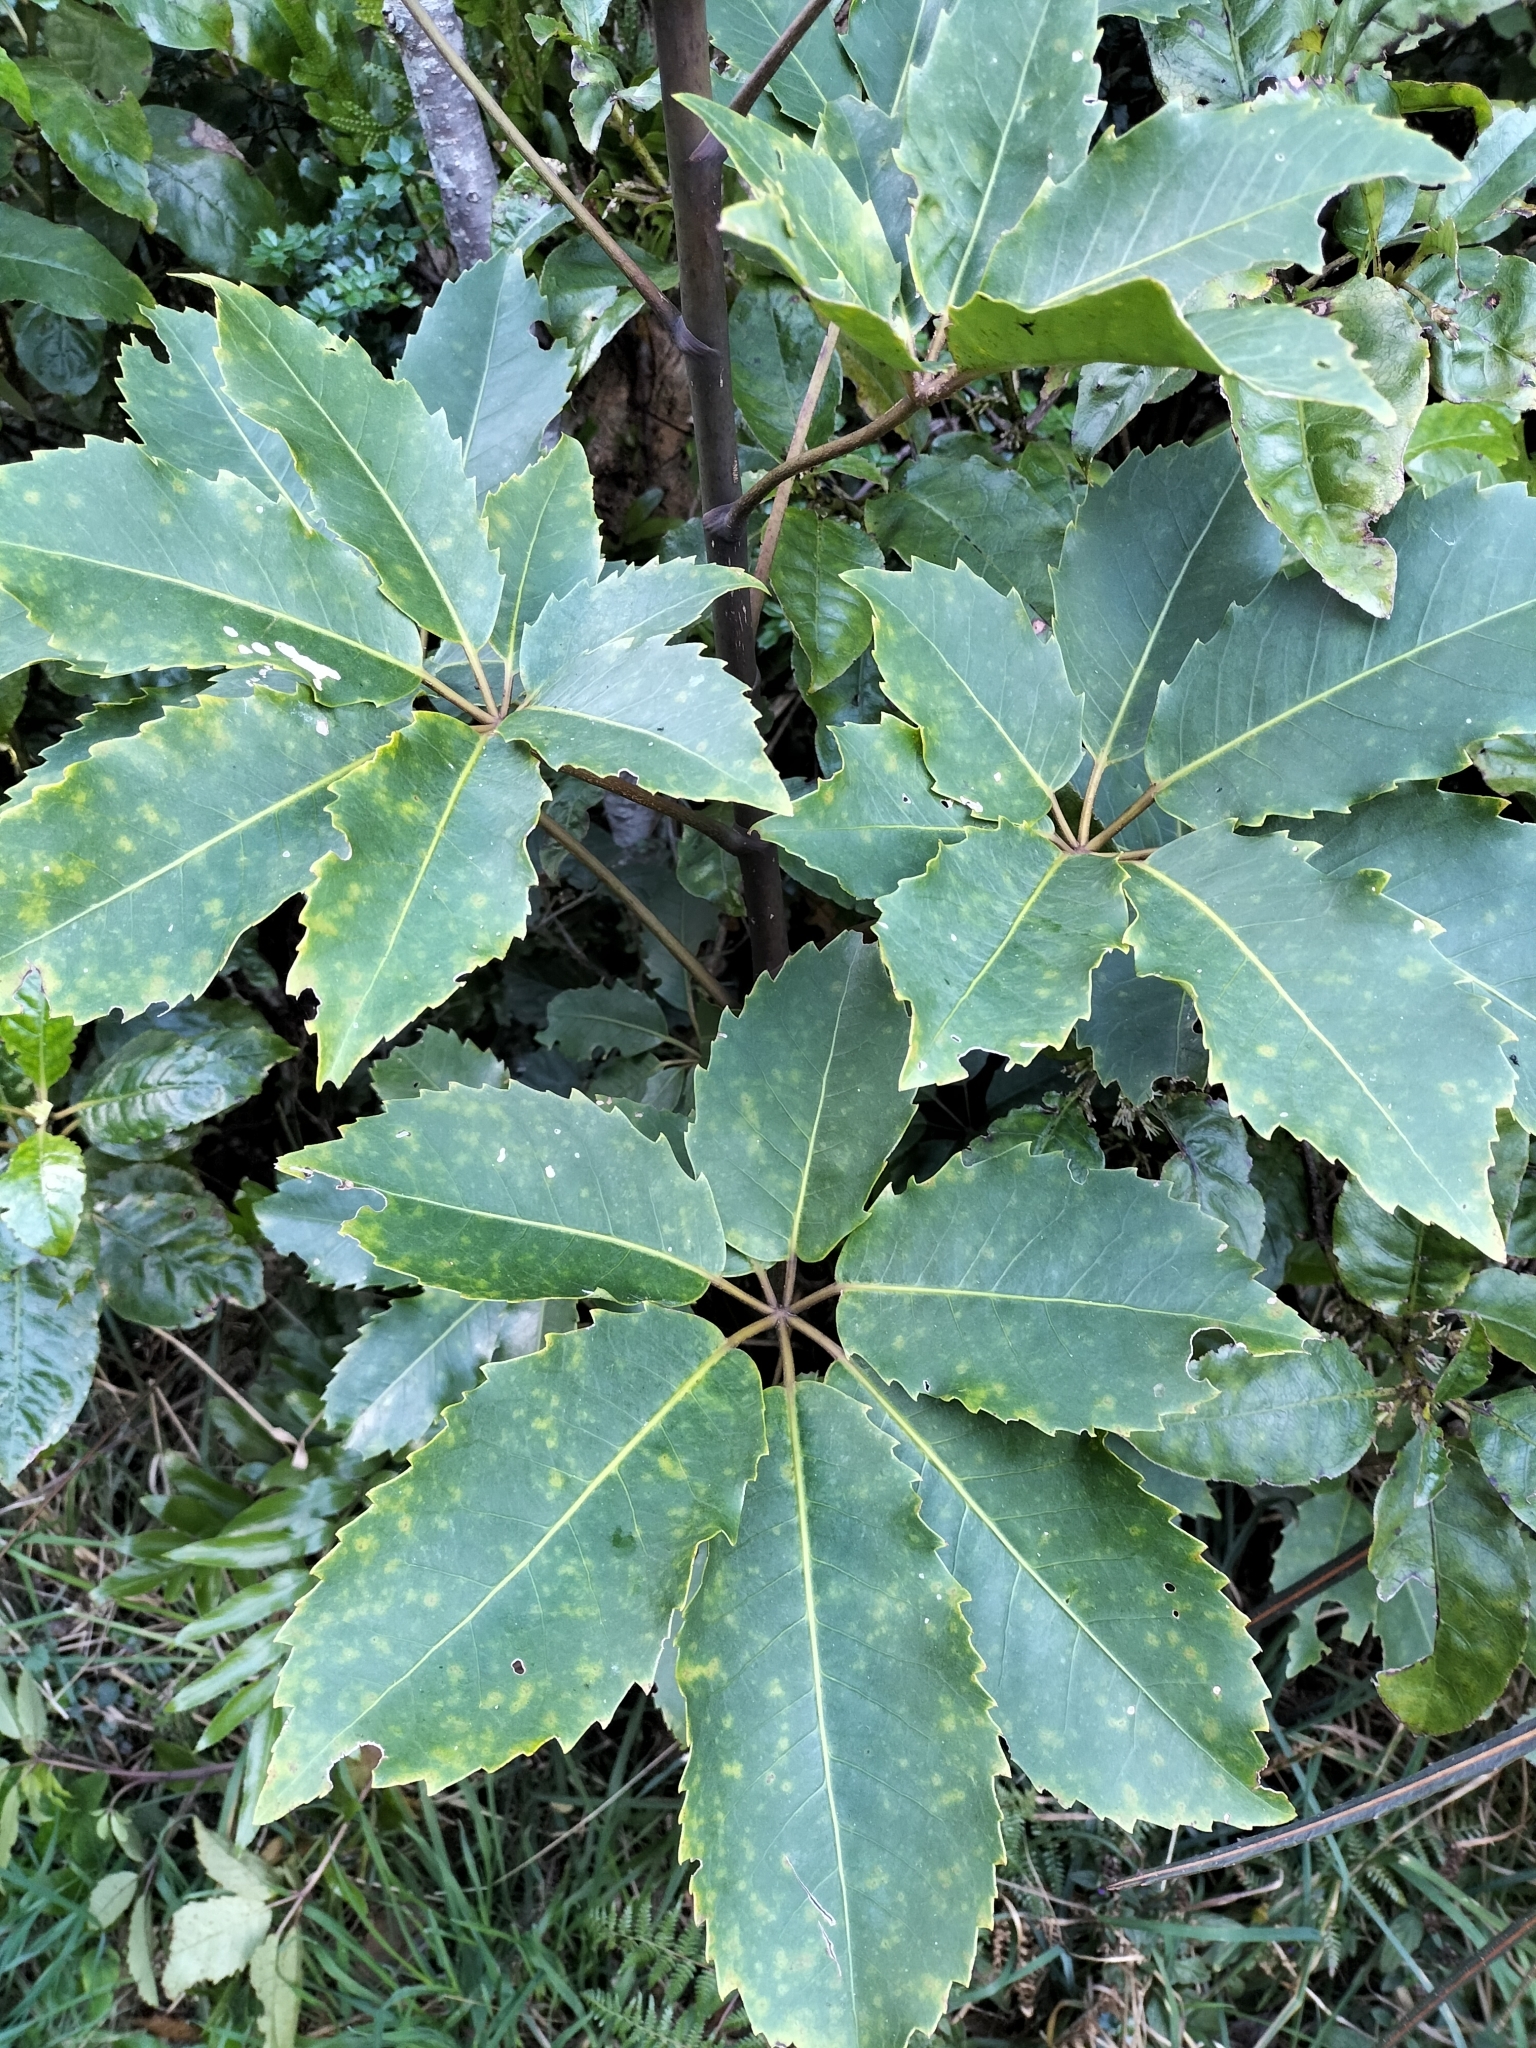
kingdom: Plantae
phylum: Tracheophyta
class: Magnoliopsida
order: Apiales
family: Araliaceae
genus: Neopanax
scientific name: Neopanax arboreus
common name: Five-fingers
